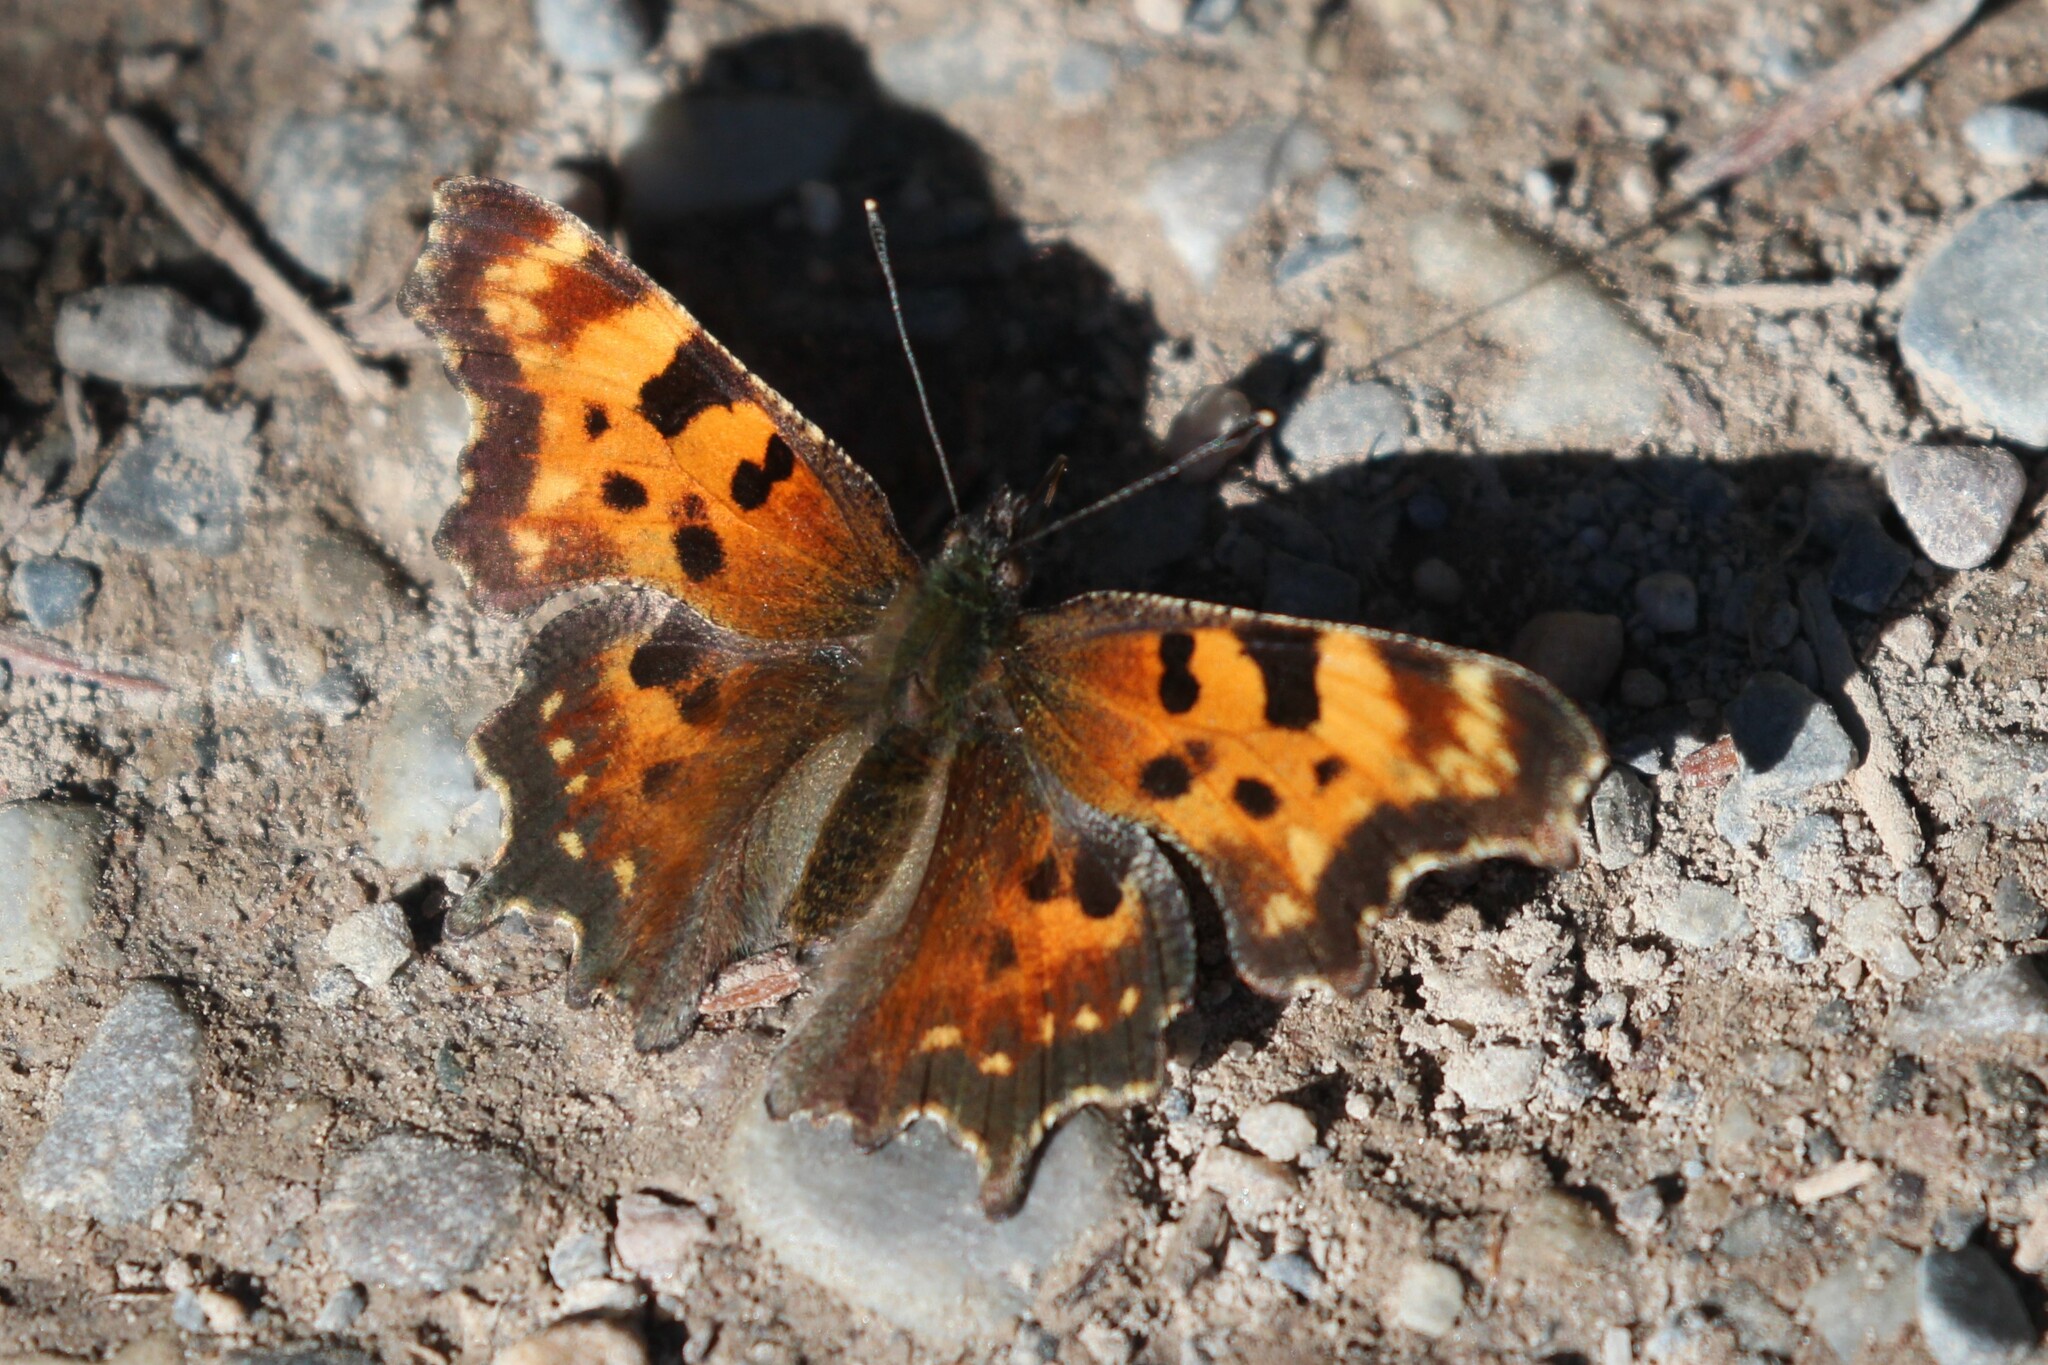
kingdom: Animalia
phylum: Arthropoda
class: Insecta
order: Lepidoptera
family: Nymphalidae
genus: Polygonia
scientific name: Polygonia faunus
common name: Green comma
